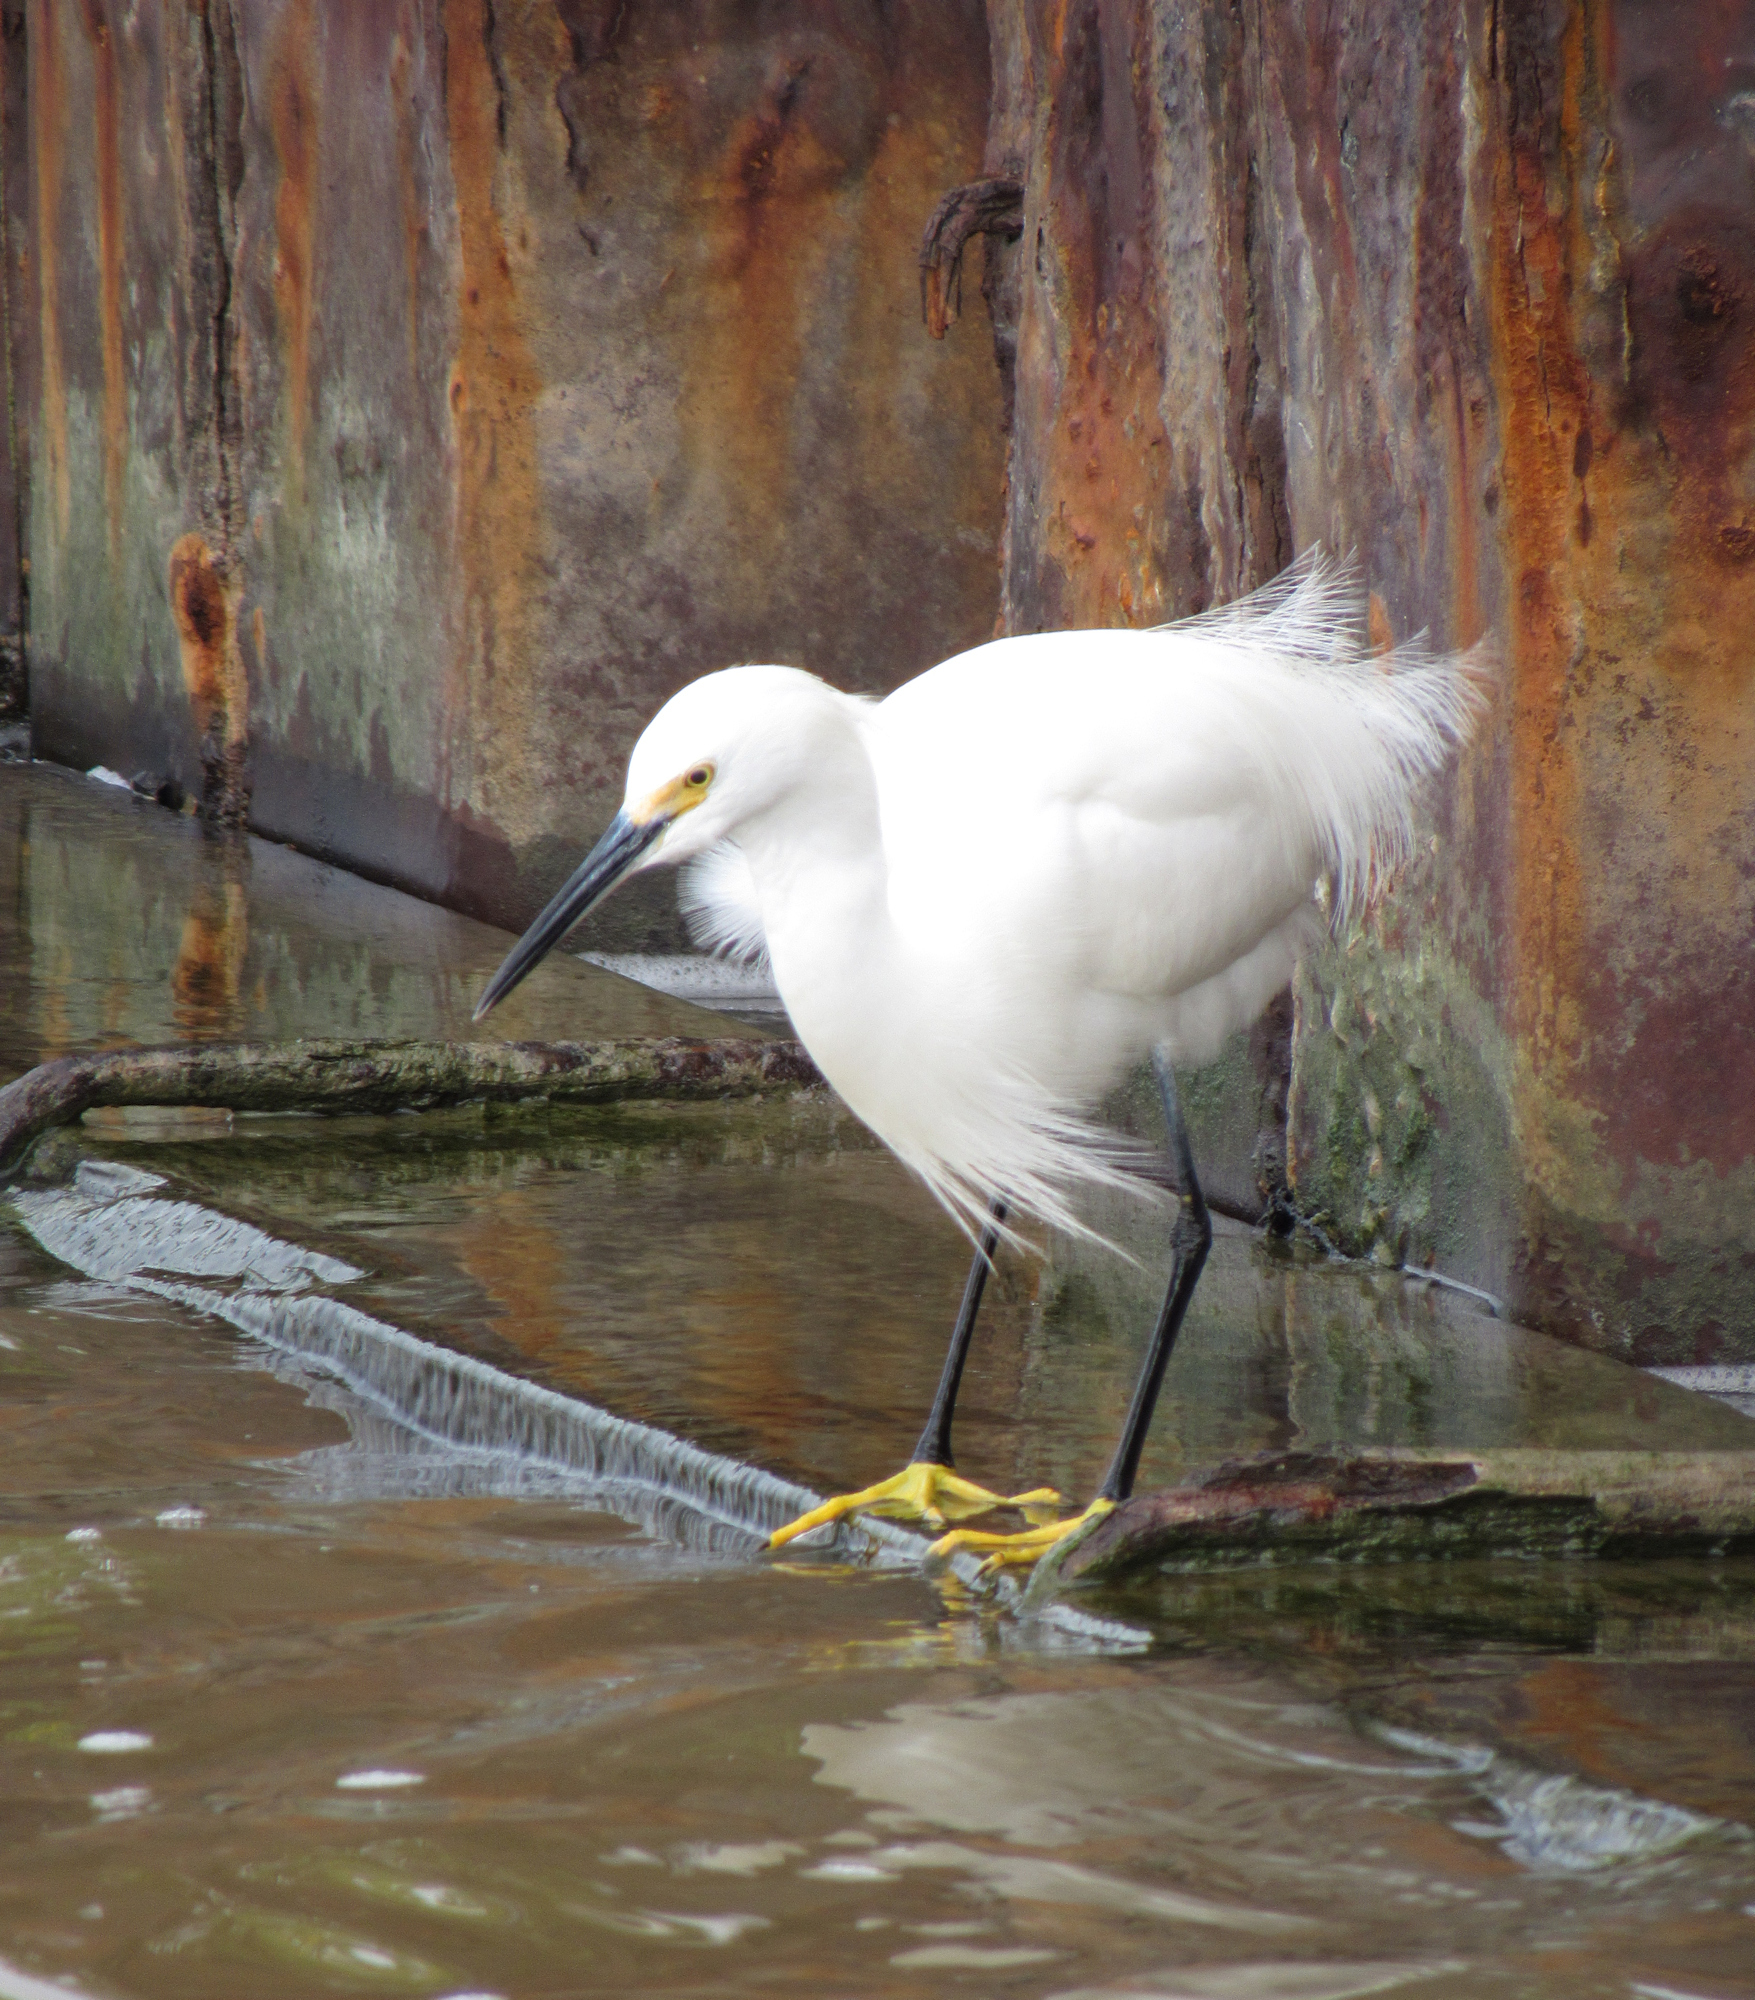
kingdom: Animalia
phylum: Chordata
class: Aves
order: Pelecaniformes
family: Ardeidae
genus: Egretta
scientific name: Egretta thula
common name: Snowy egret
